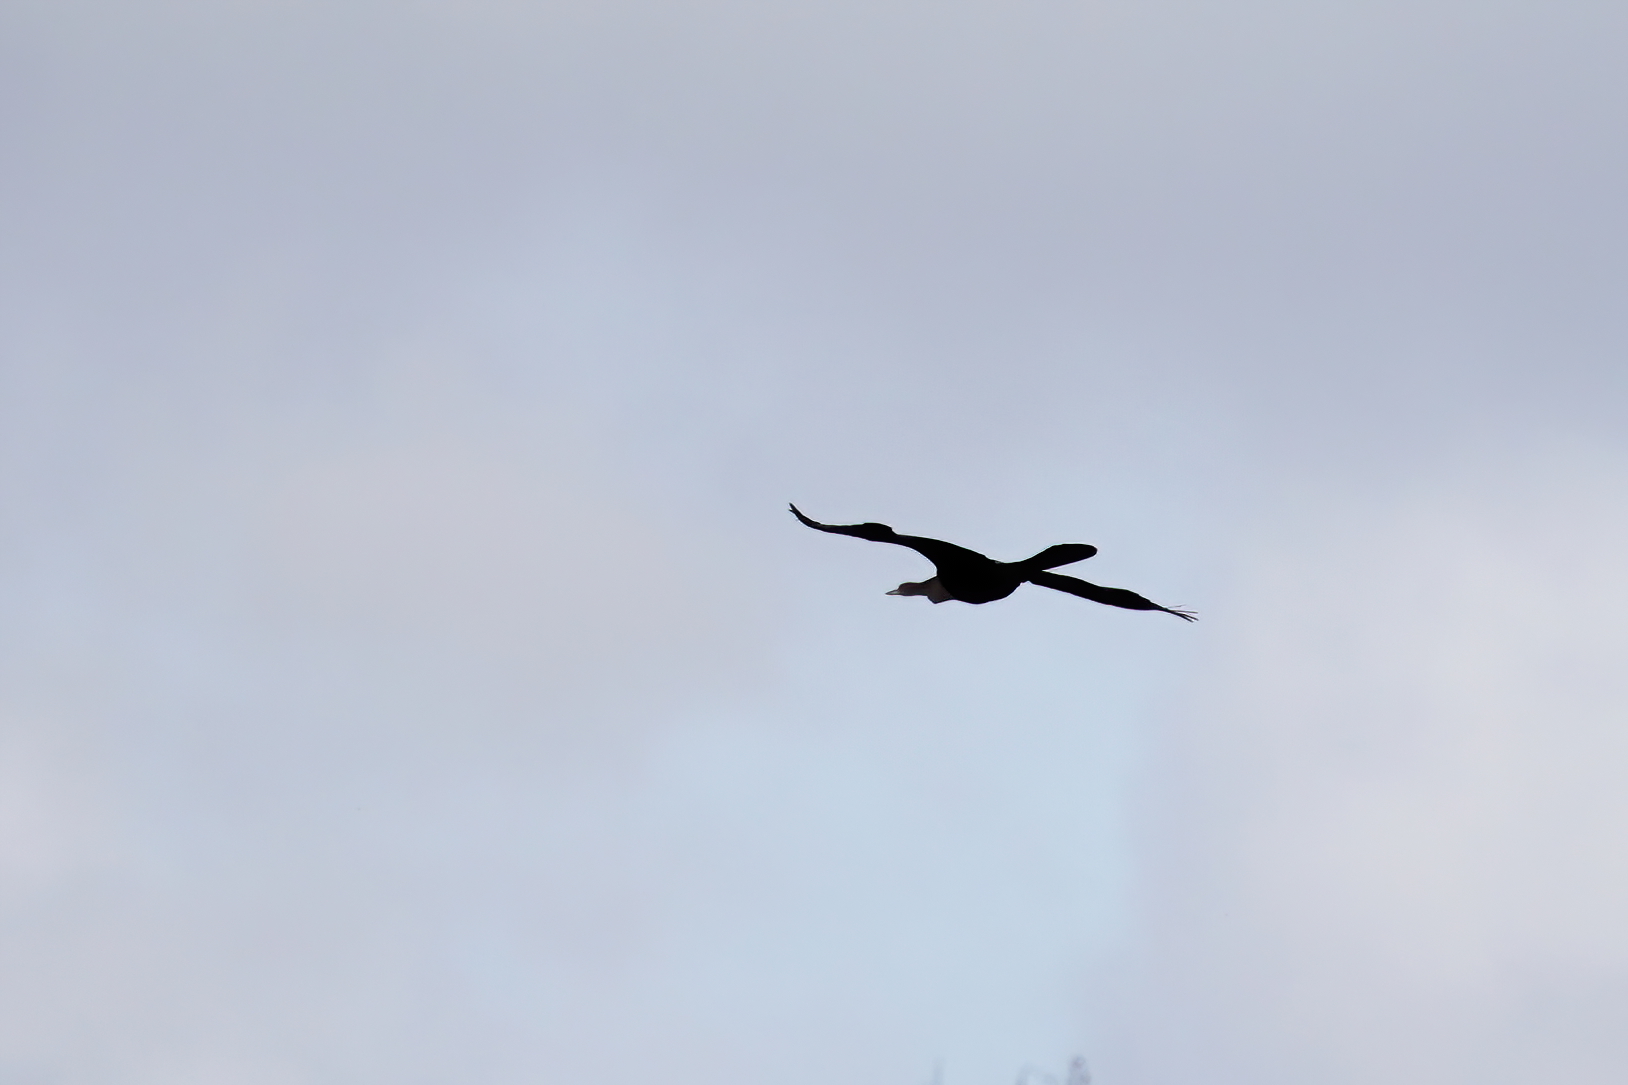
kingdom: Animalia
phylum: Chordata
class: Aves
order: Suliformes
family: Anhingidae
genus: Anhinga
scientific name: Anhinga anhinga
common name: Anhinga
